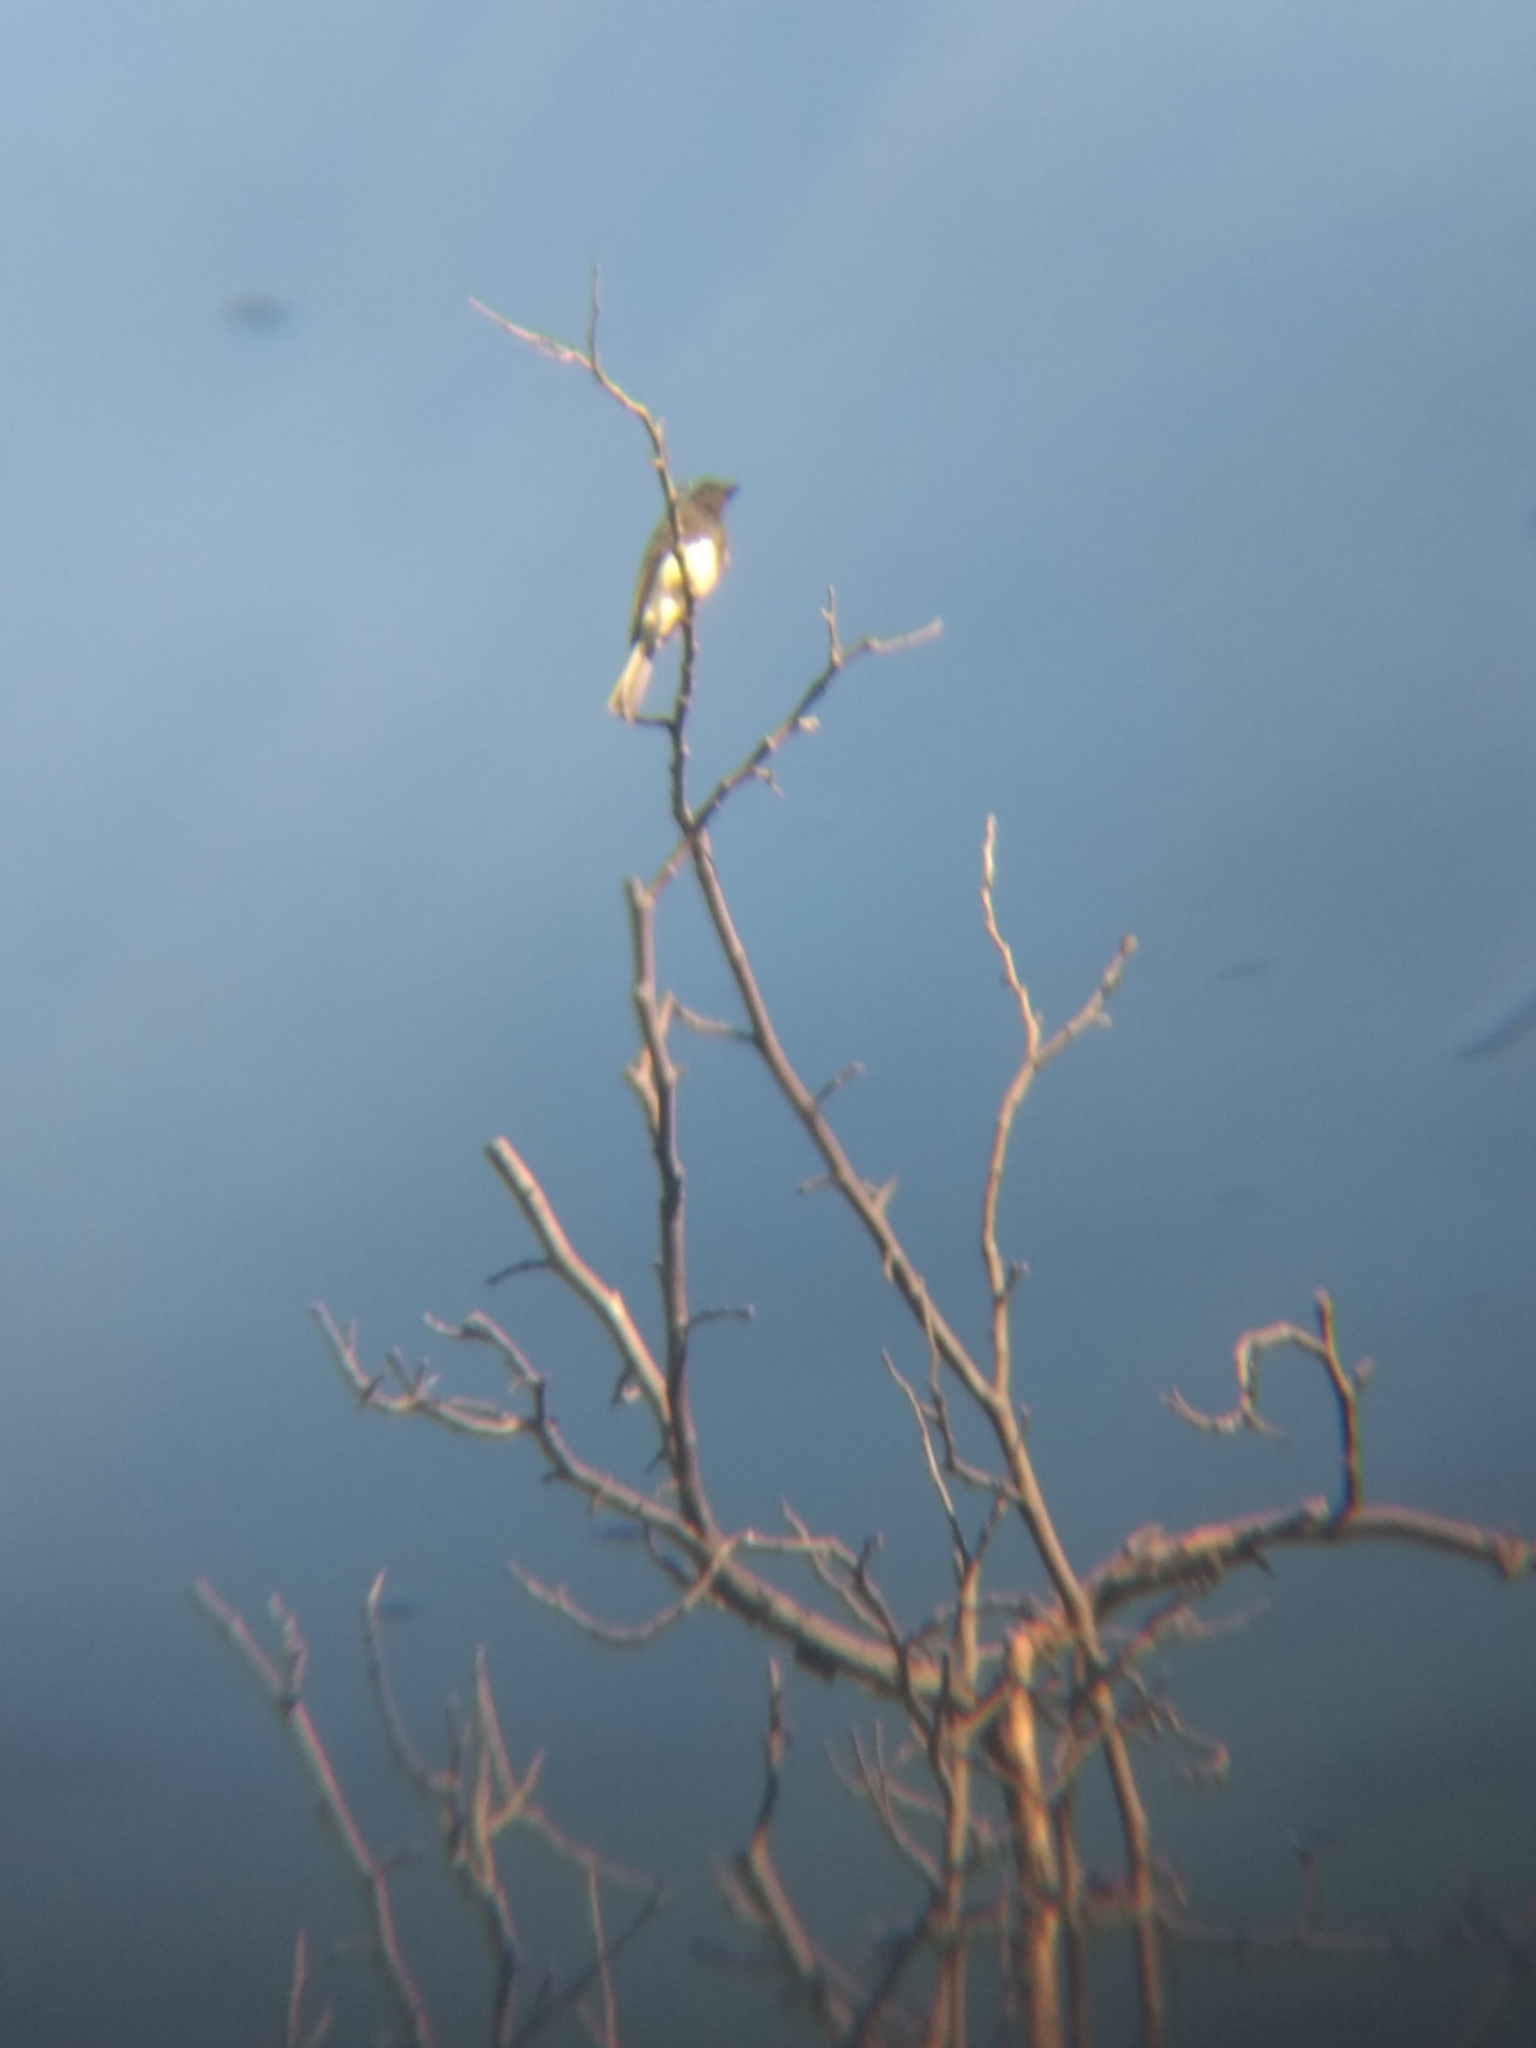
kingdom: Animalia
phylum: Chordata
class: Aves
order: Passeriformes
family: Tyrannidae
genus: Sayornis
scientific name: Sayornis nigricans
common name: Black phoebe
